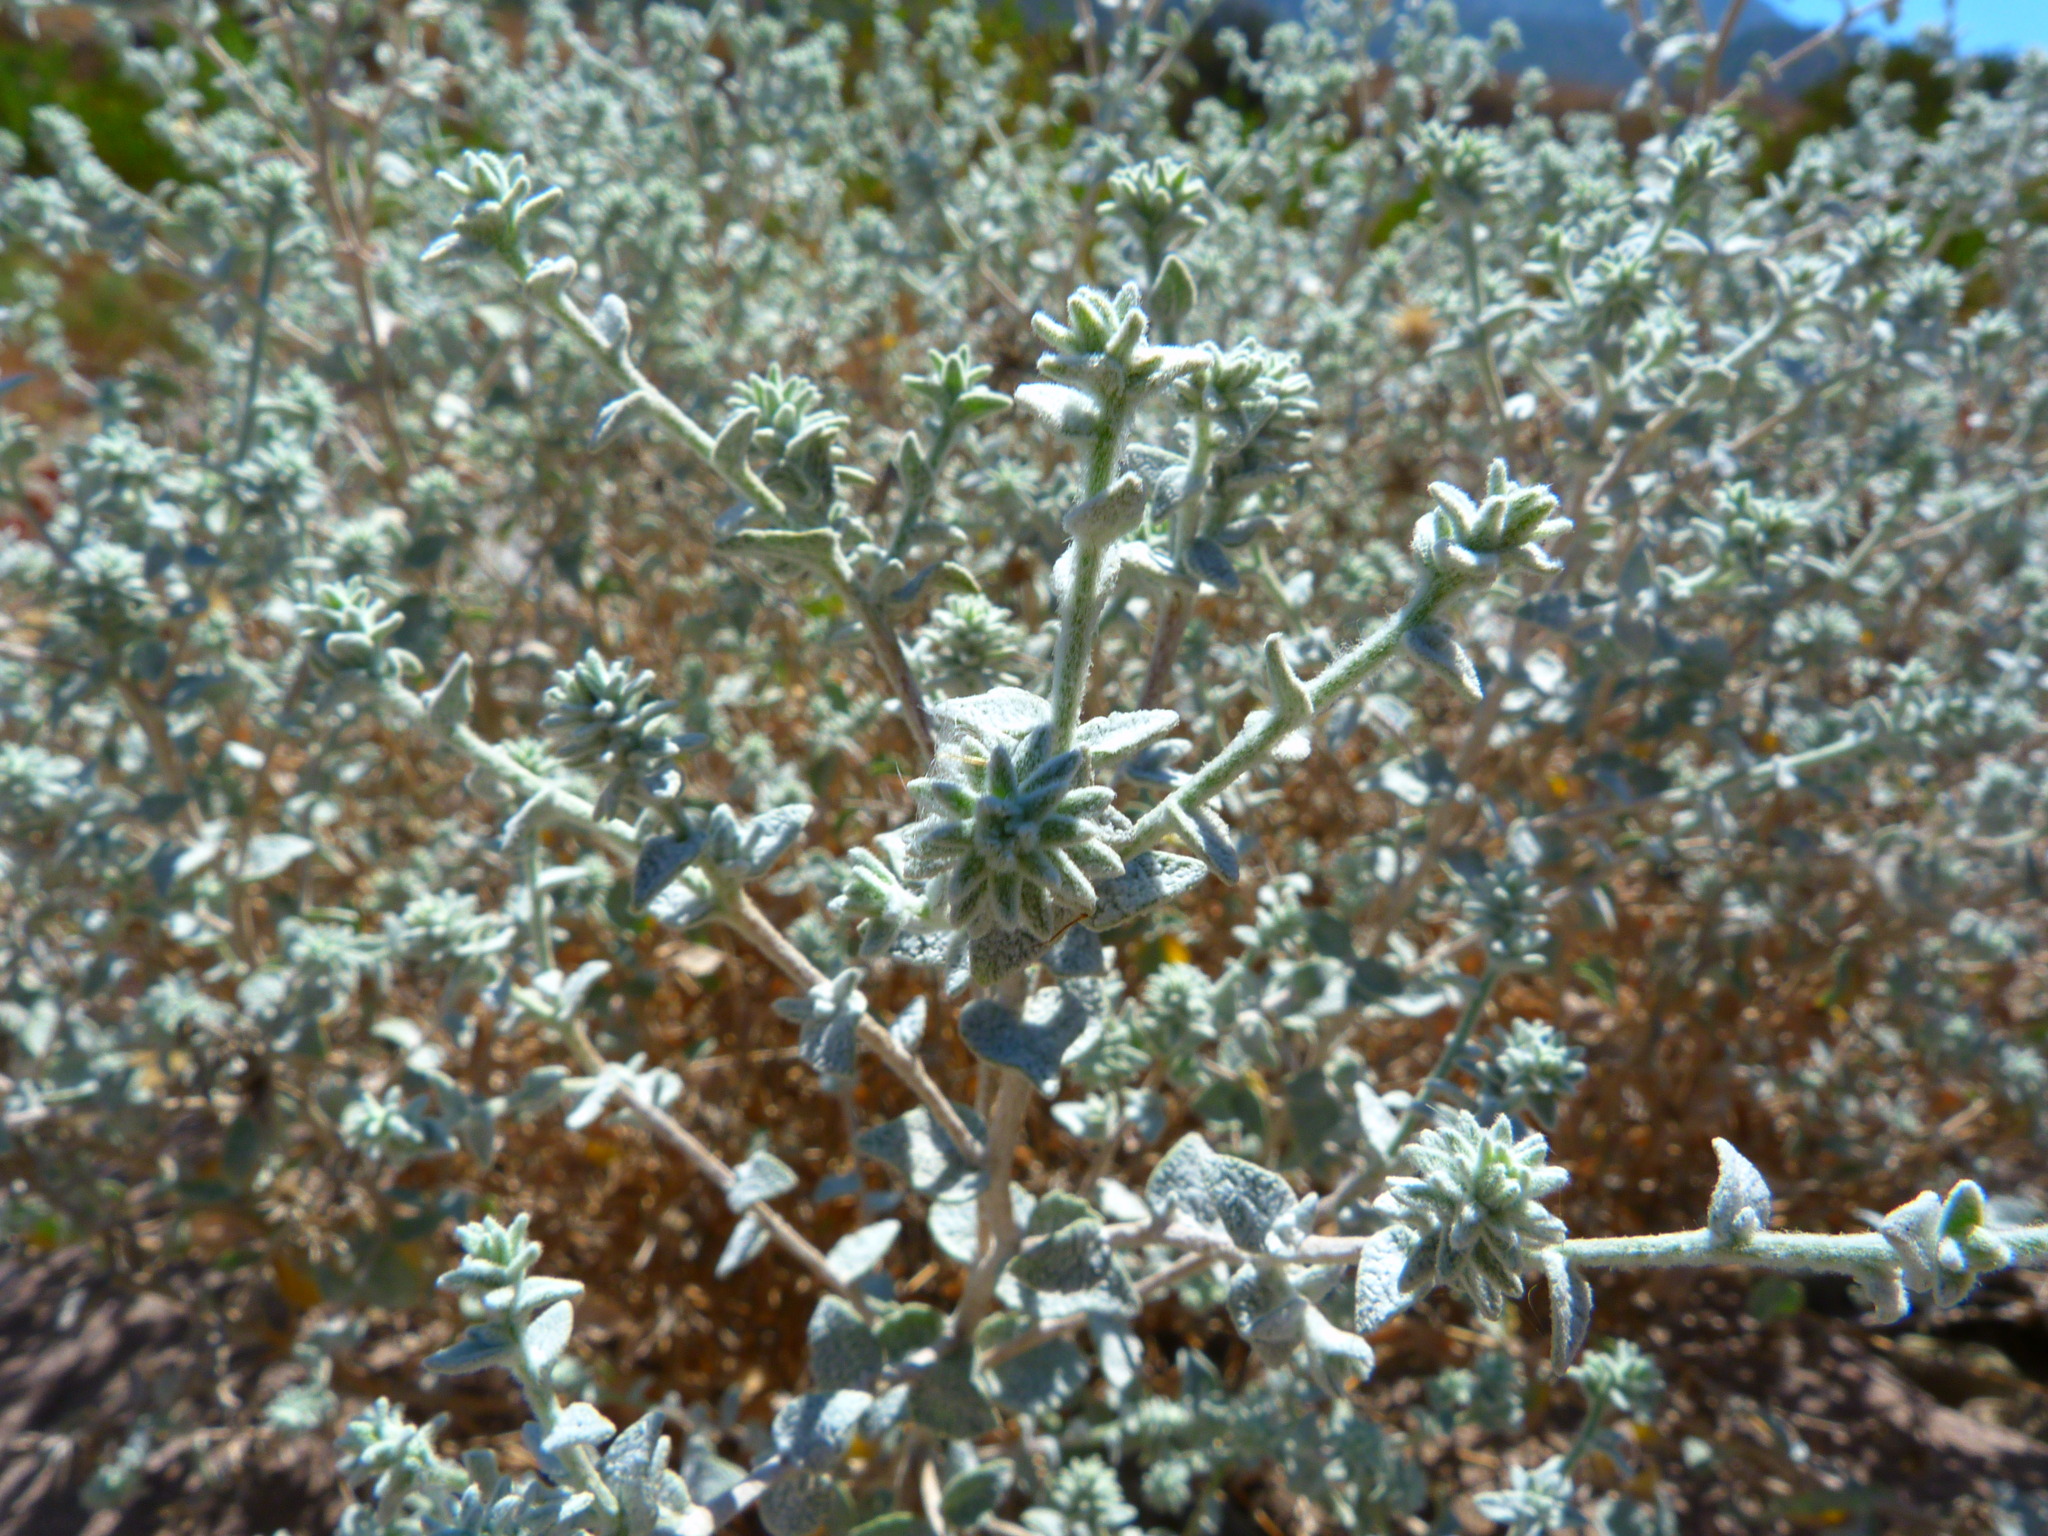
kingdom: Plantae
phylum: Tracheophyta
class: Magnoliopsida
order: Asterales
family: Asteraceae
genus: Brickellia
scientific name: Brickellia nevinii
